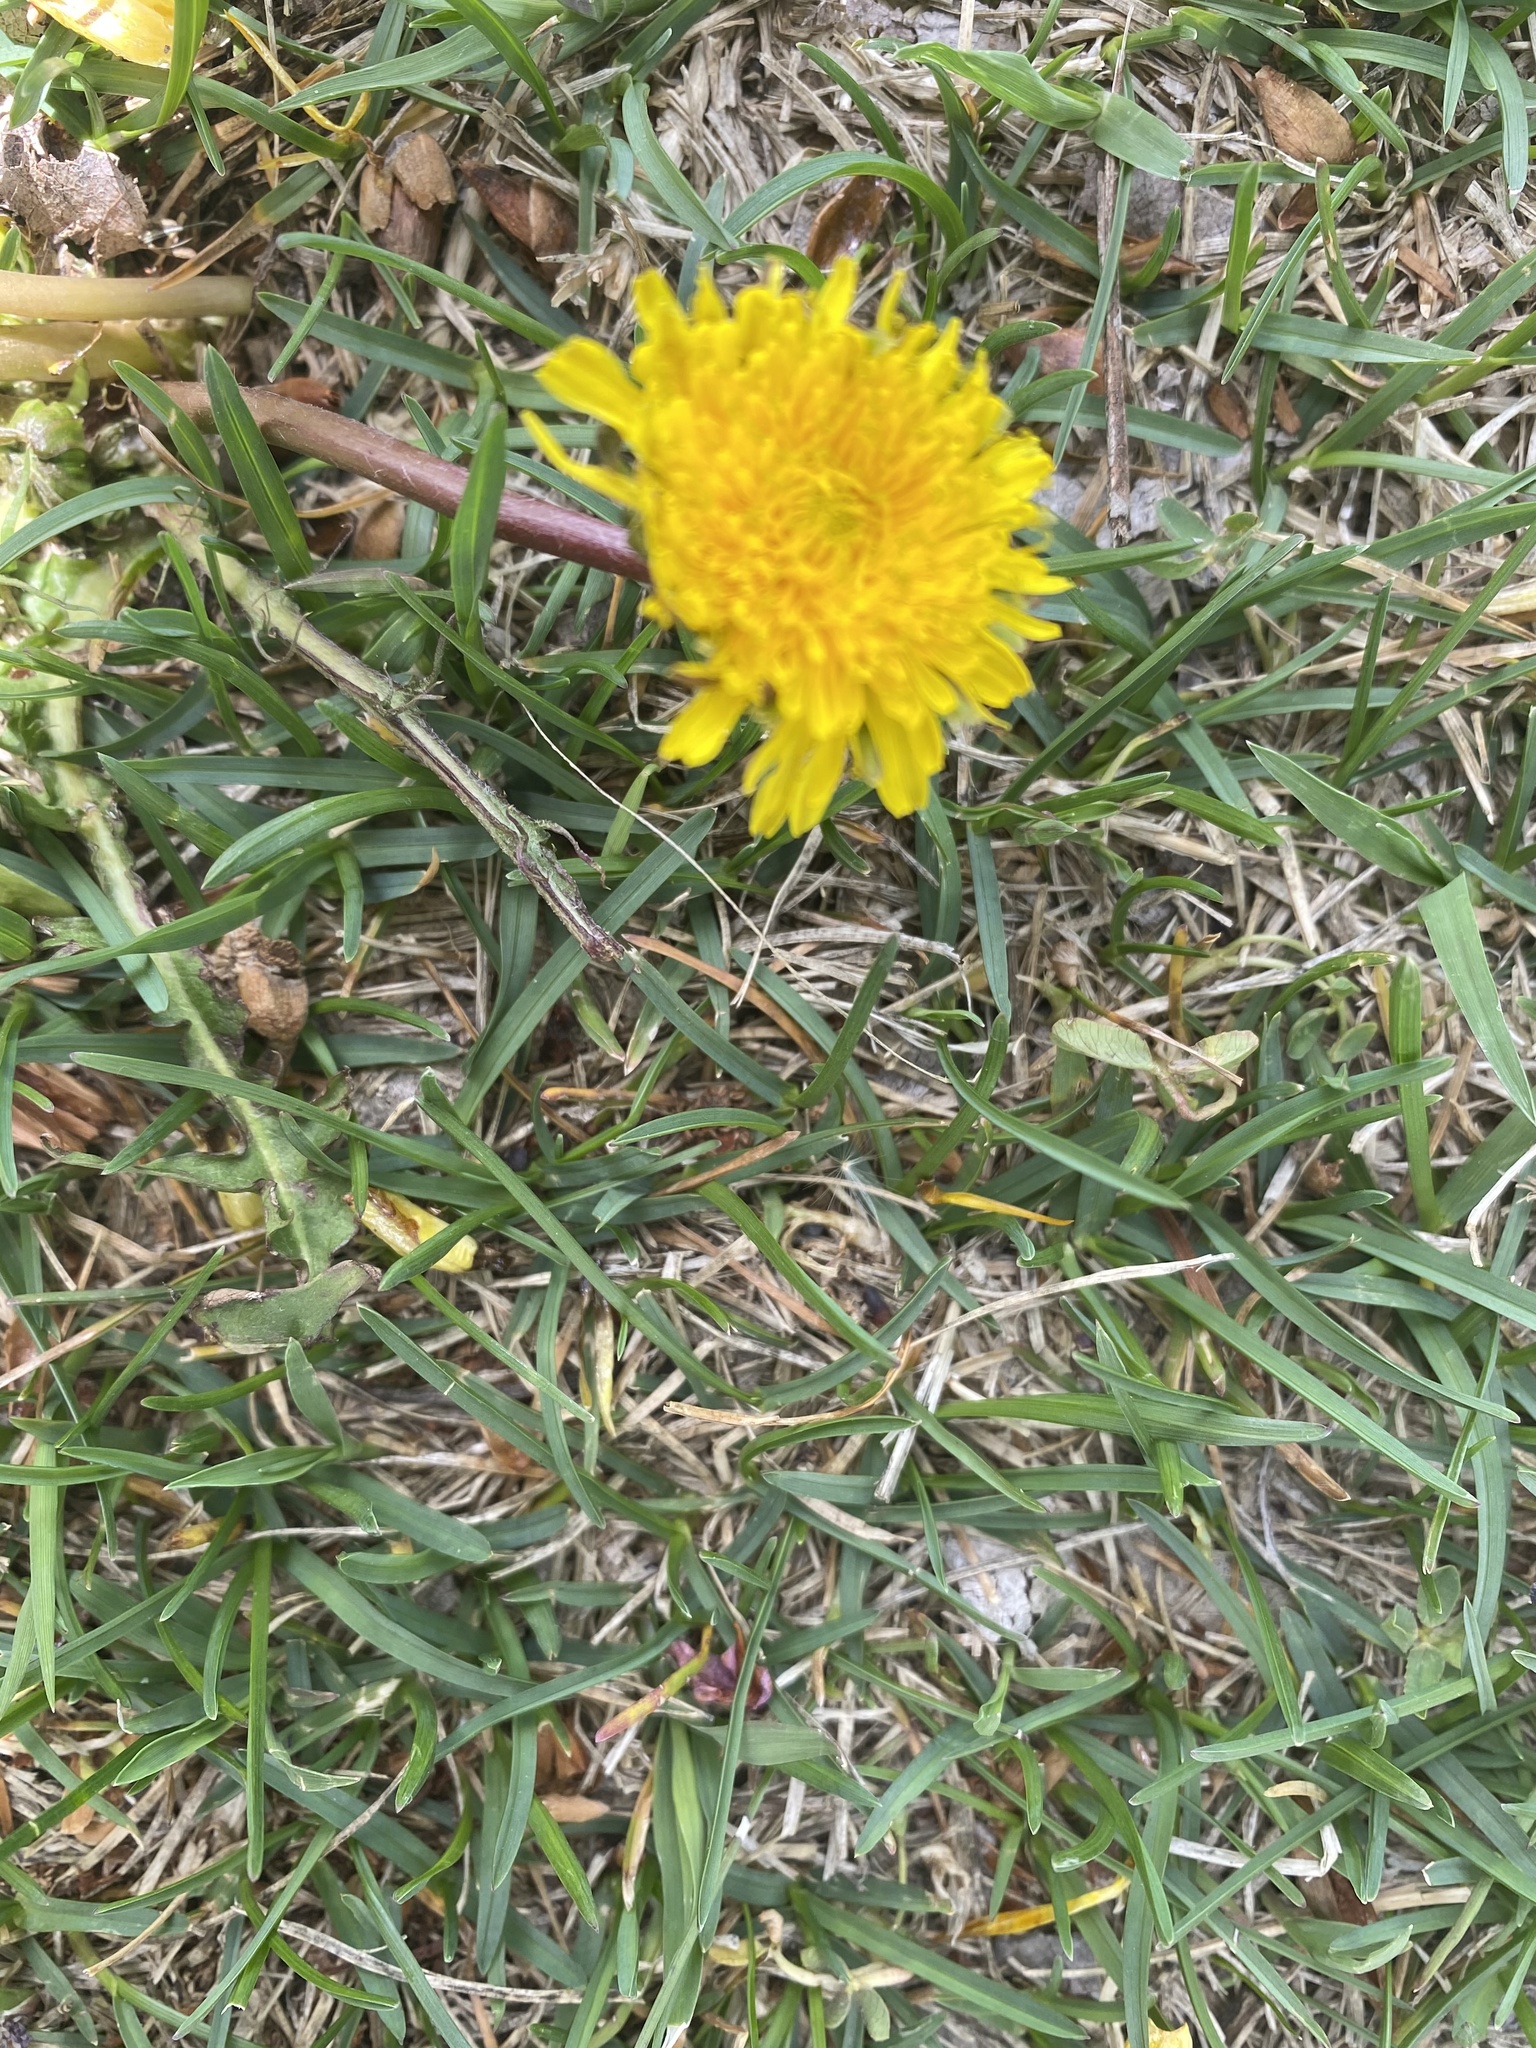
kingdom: Plantae
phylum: Tracheophyta
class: Magnoliopsida
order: Asterales
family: Asteraceae
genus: Taraxacum
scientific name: Taraxacum officinale
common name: Common dandelion
